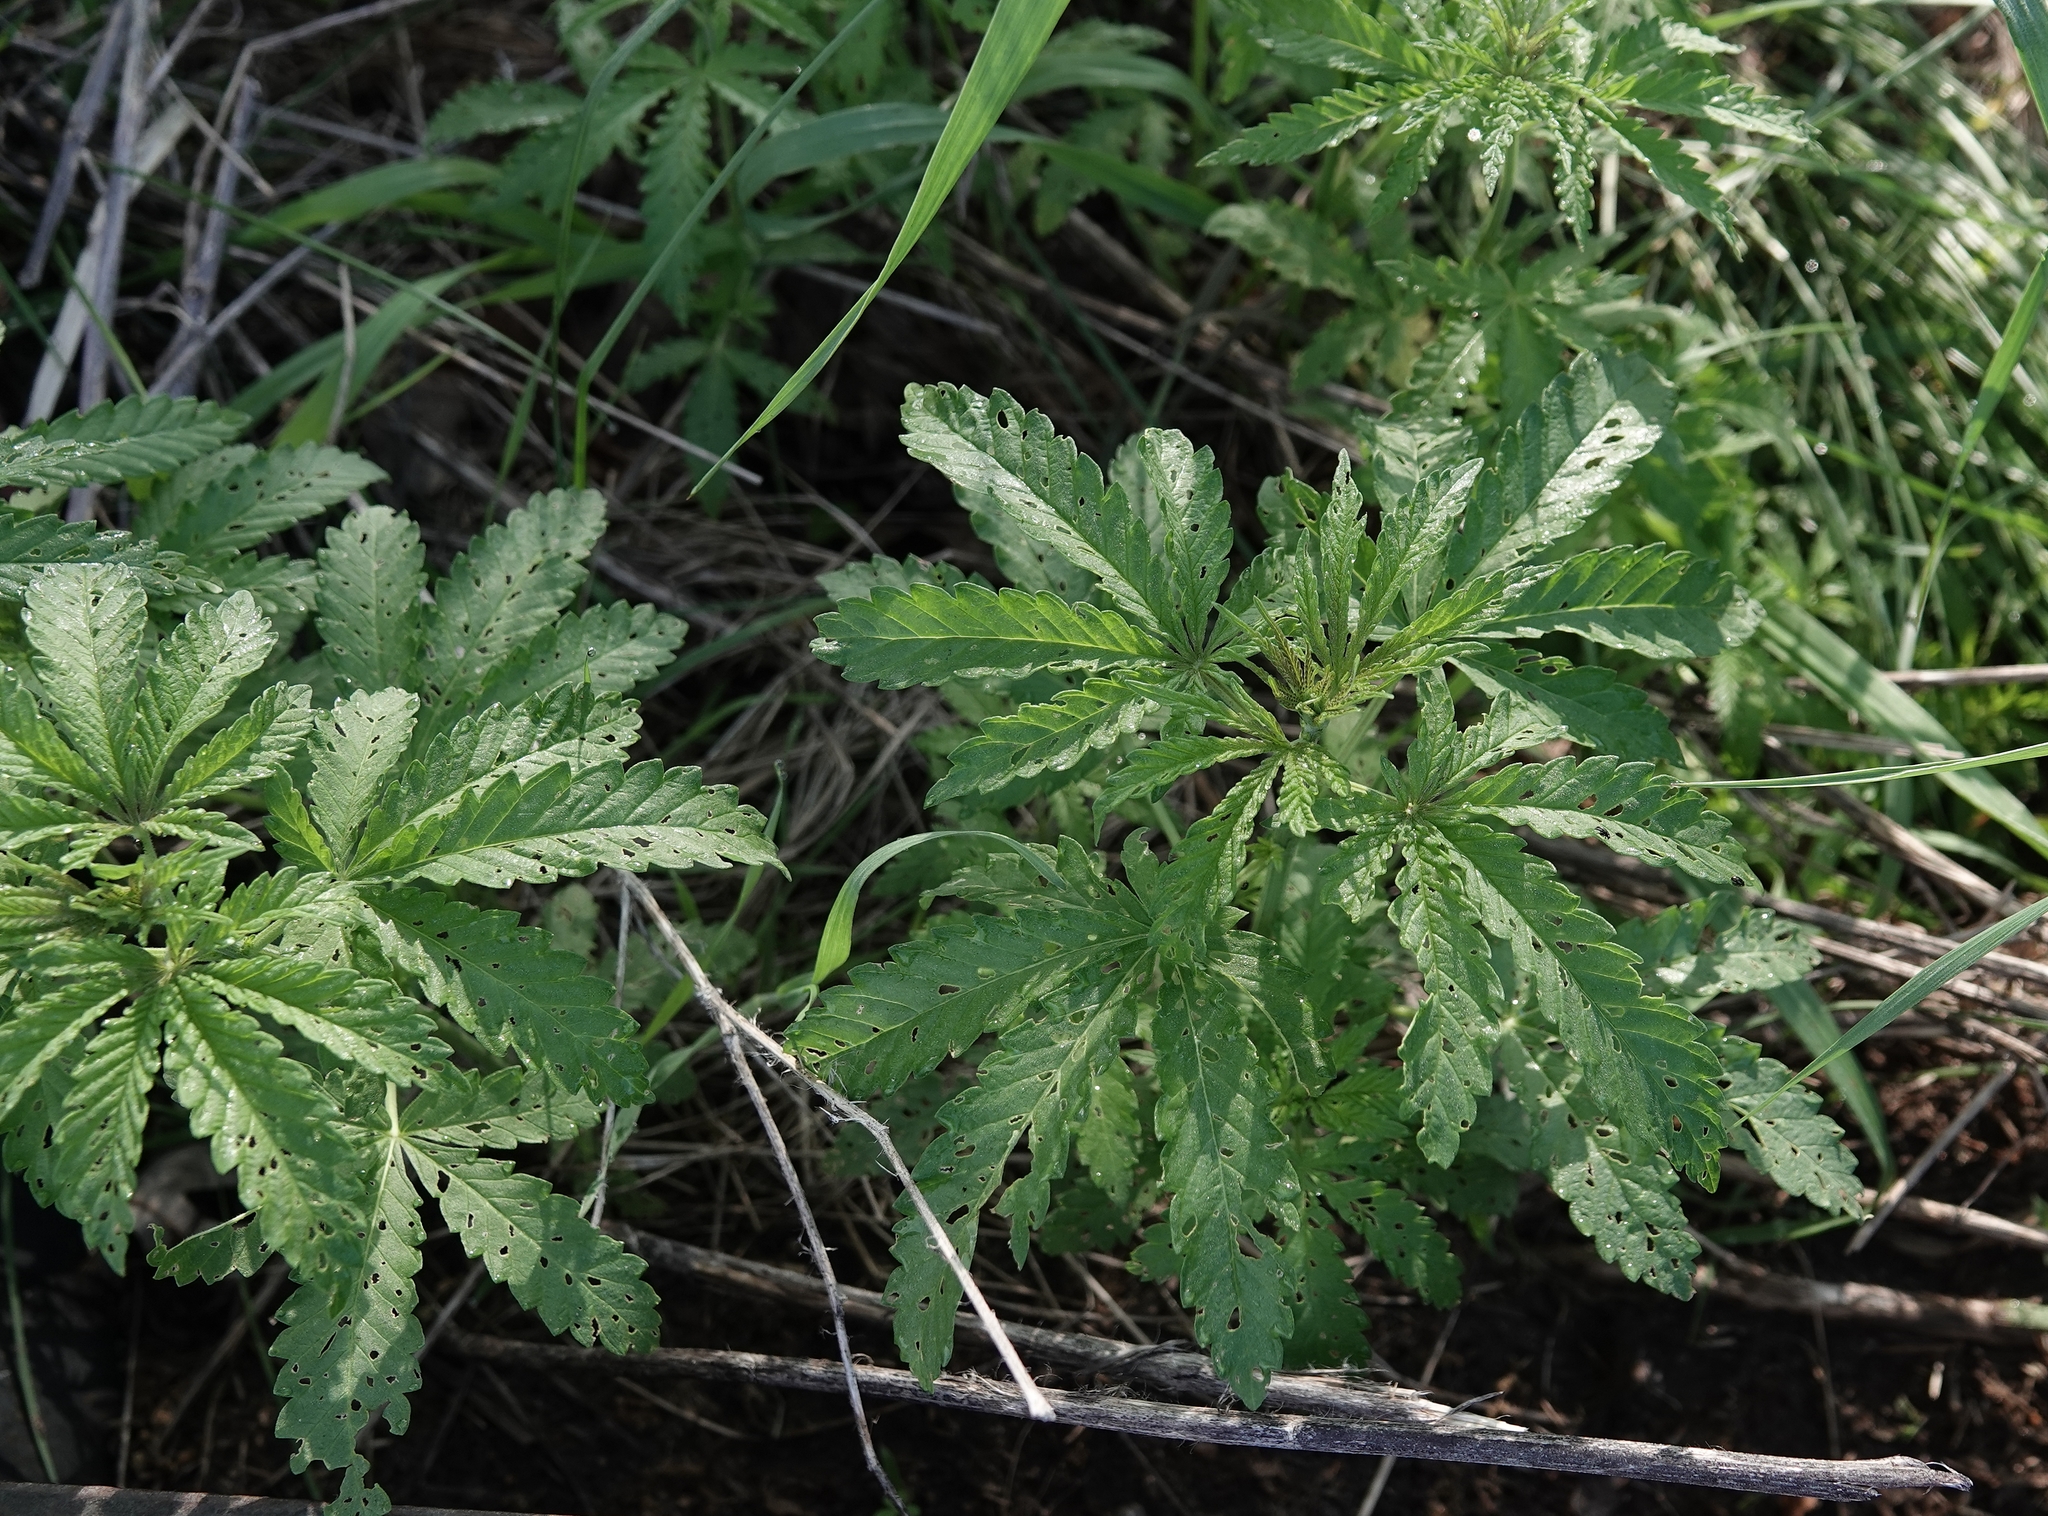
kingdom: Plantae
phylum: Tracheophyta
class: Magnoliopsida
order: Rosales
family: Cannabaceae
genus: Cannabis
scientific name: Cannabis sativa
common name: Hemp
